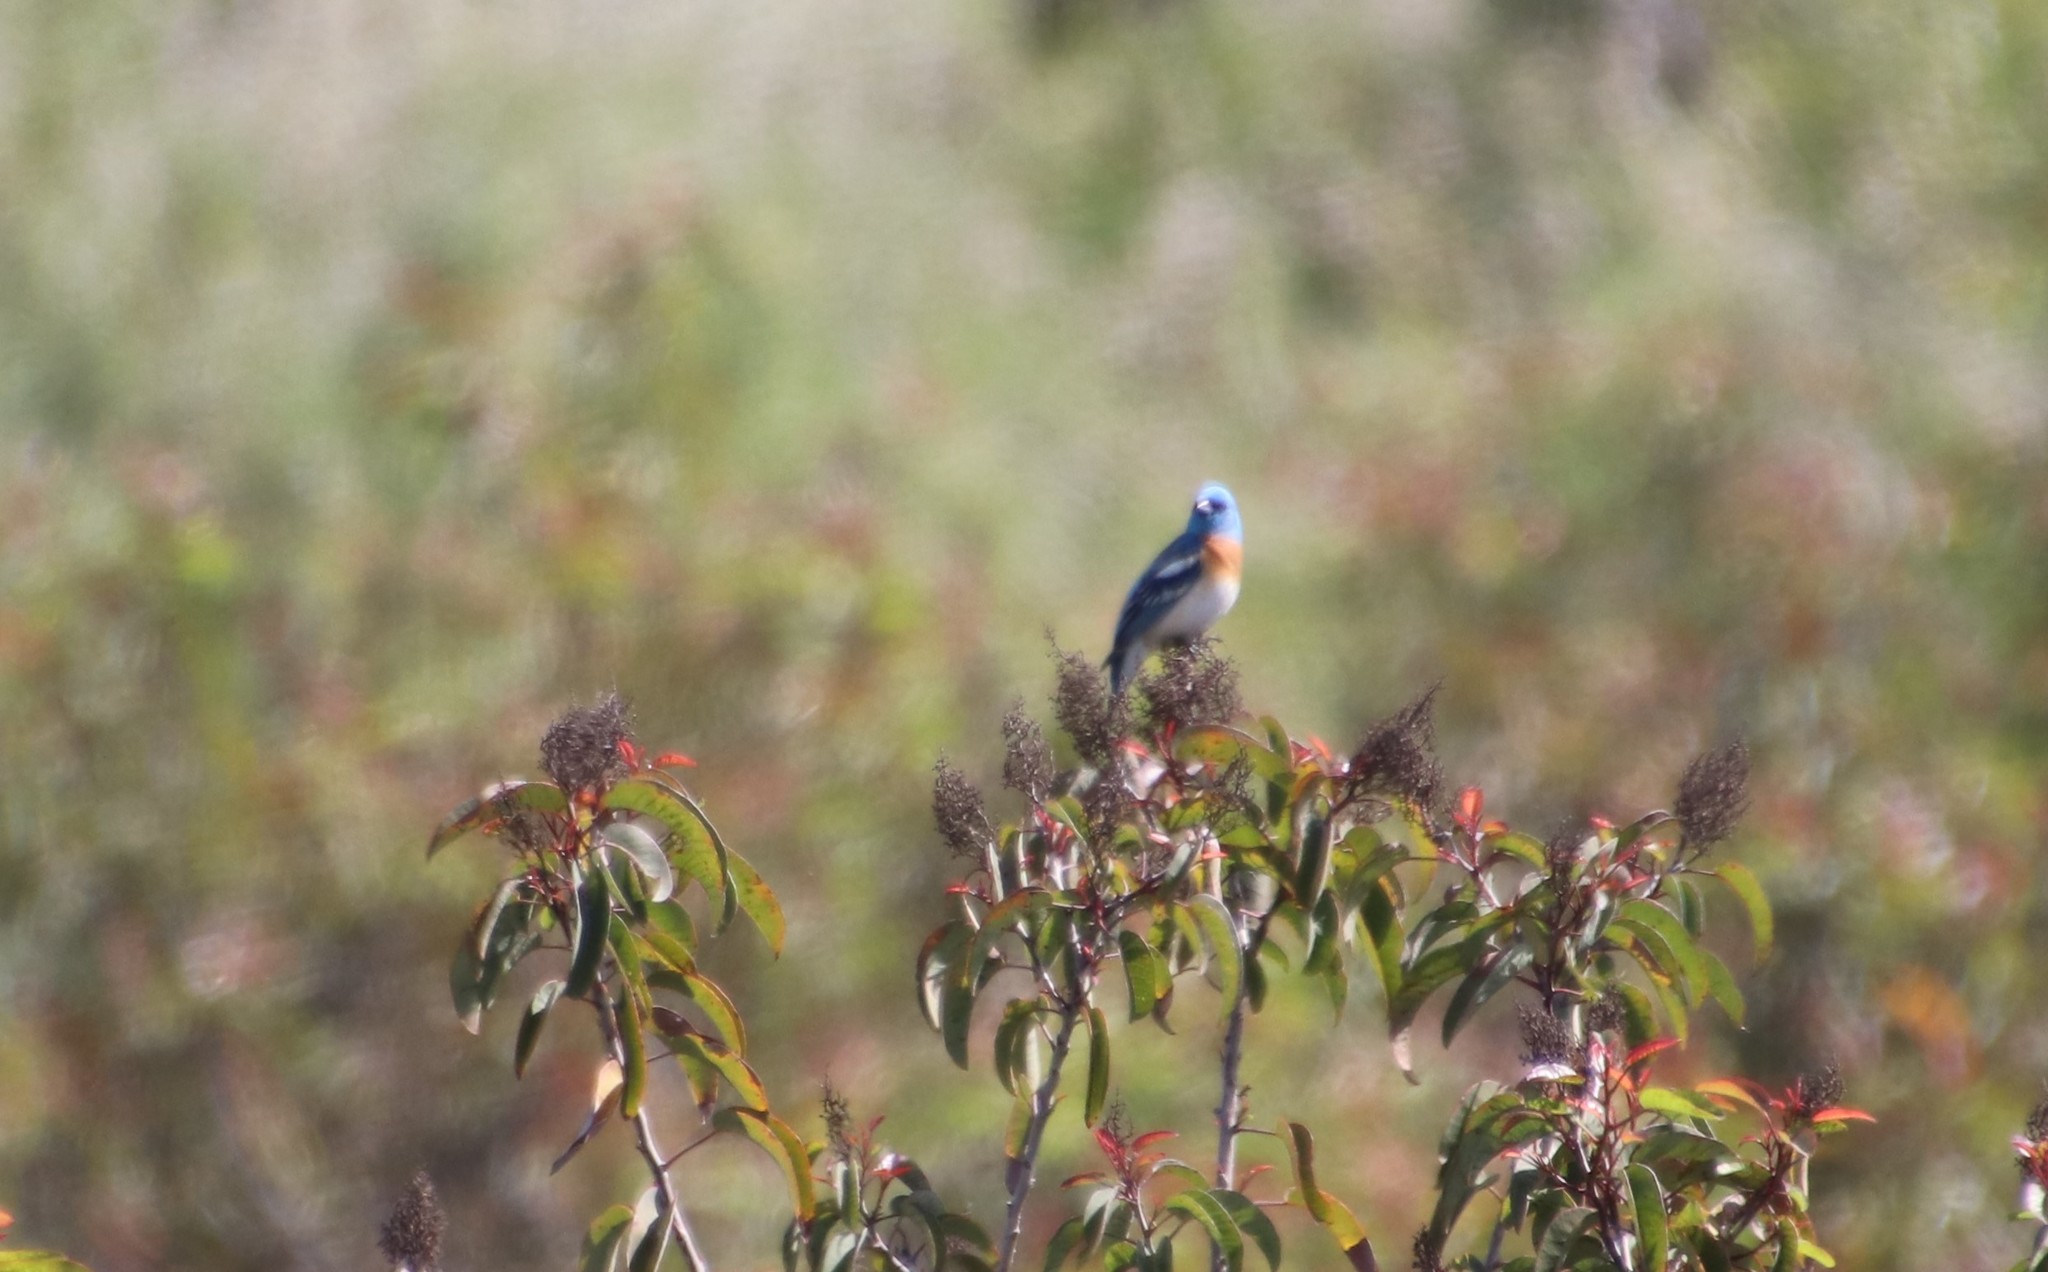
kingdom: Animalia
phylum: Chordata
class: Aves
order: Passeriformes
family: Cardinalidae
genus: Passerina
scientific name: Passerina amoena
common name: Lazuli bunting
